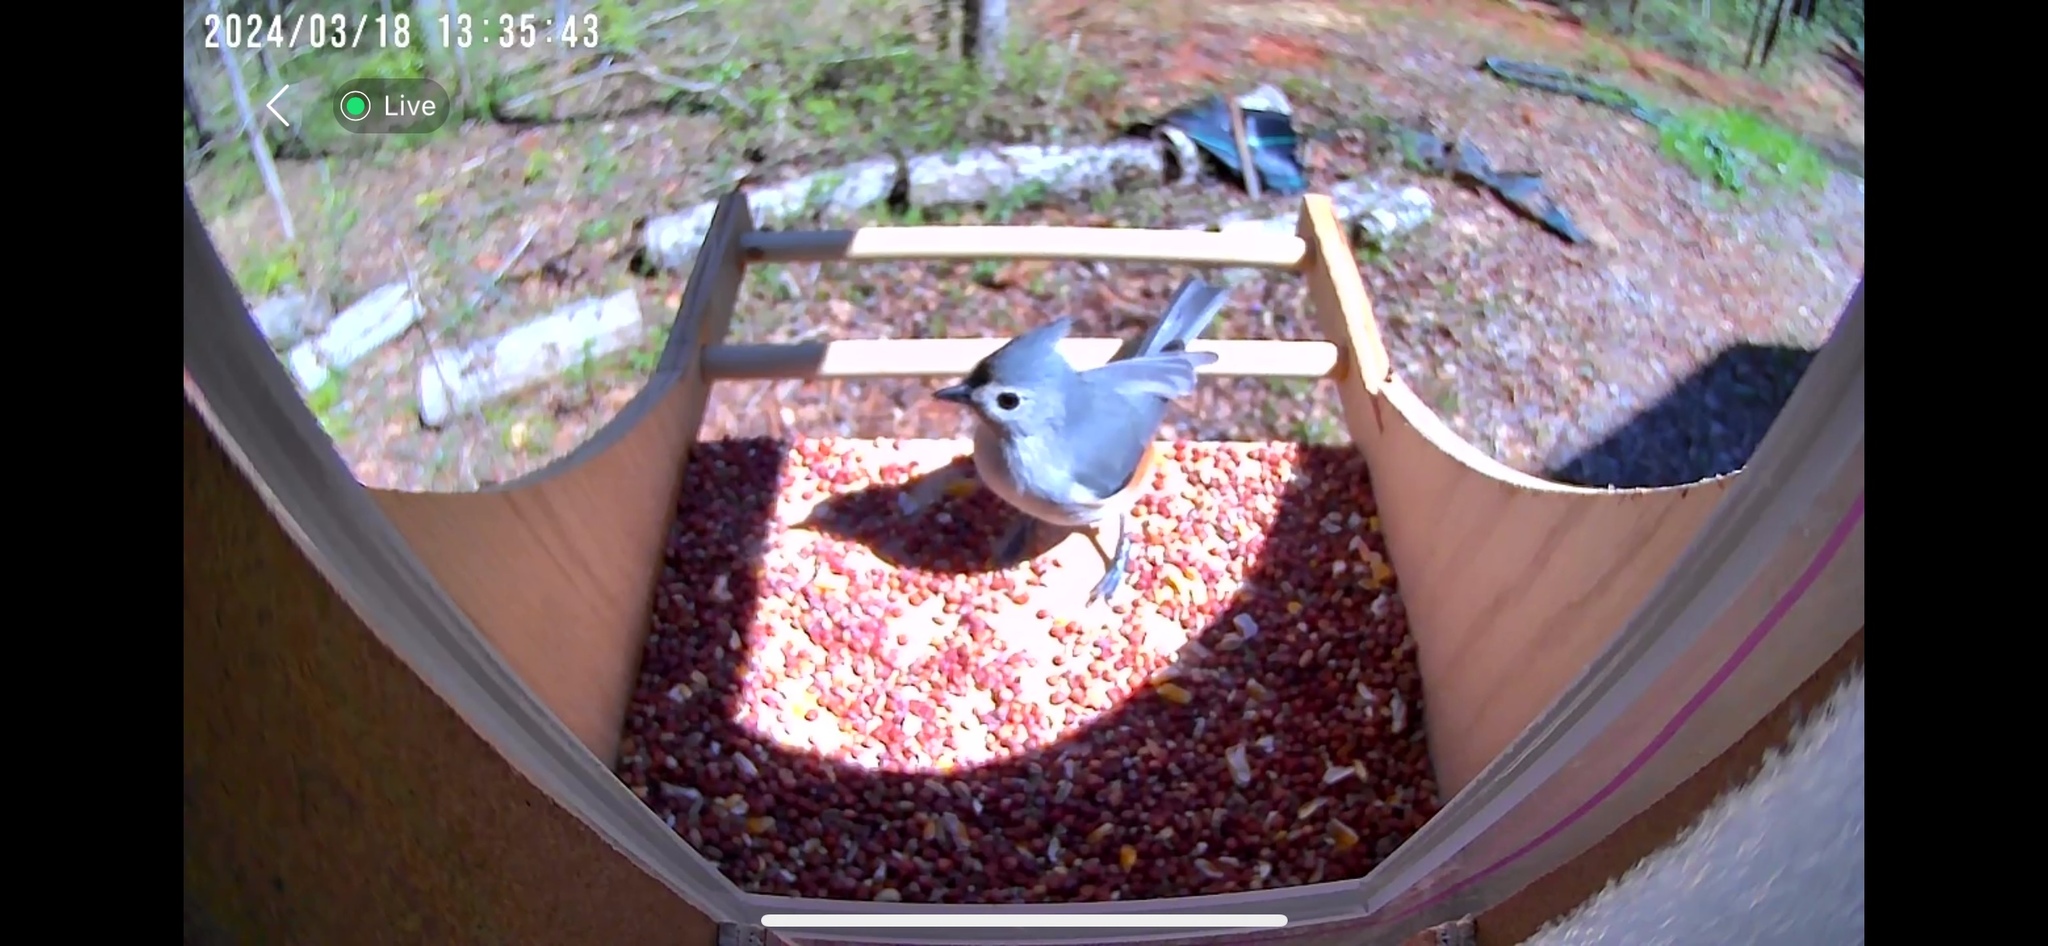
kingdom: Animalia
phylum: Chordata
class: Aves
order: Passeriformes
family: Paridae
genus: Baeolophus
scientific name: Baeolophus bicolor
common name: Tufted titmouse
